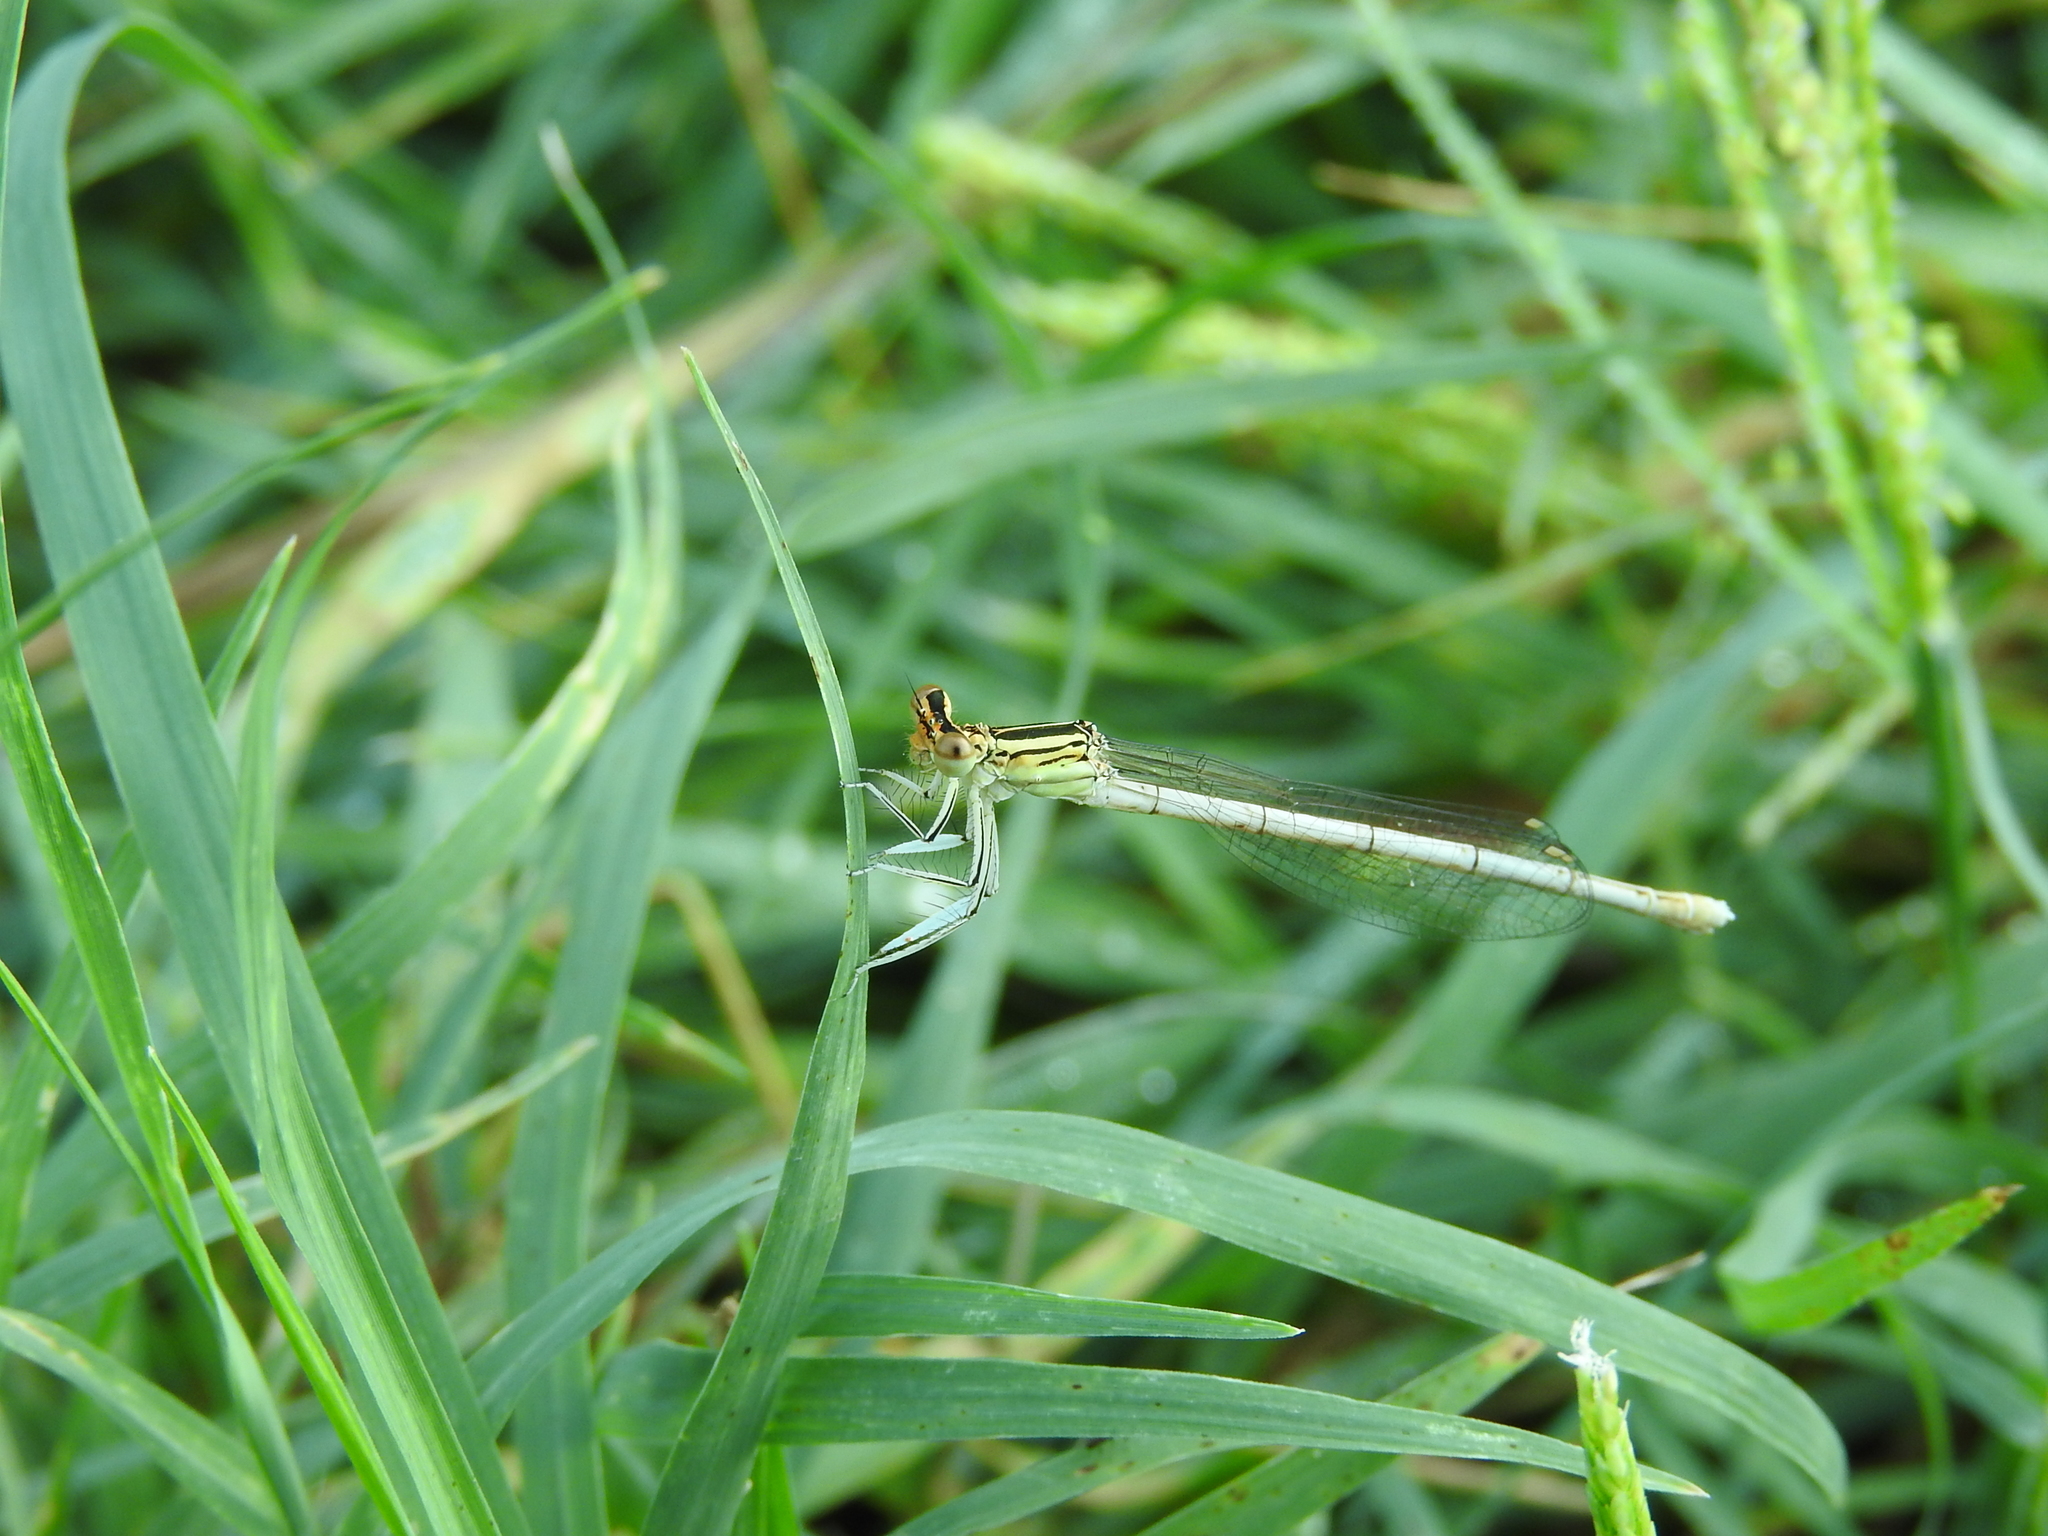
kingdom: Animalia
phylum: Arthropoda
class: Insecta
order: Odonata
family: Platycnemididae
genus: Platycnemis
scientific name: Platycnemis pennipes
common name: White-legged damselfly
